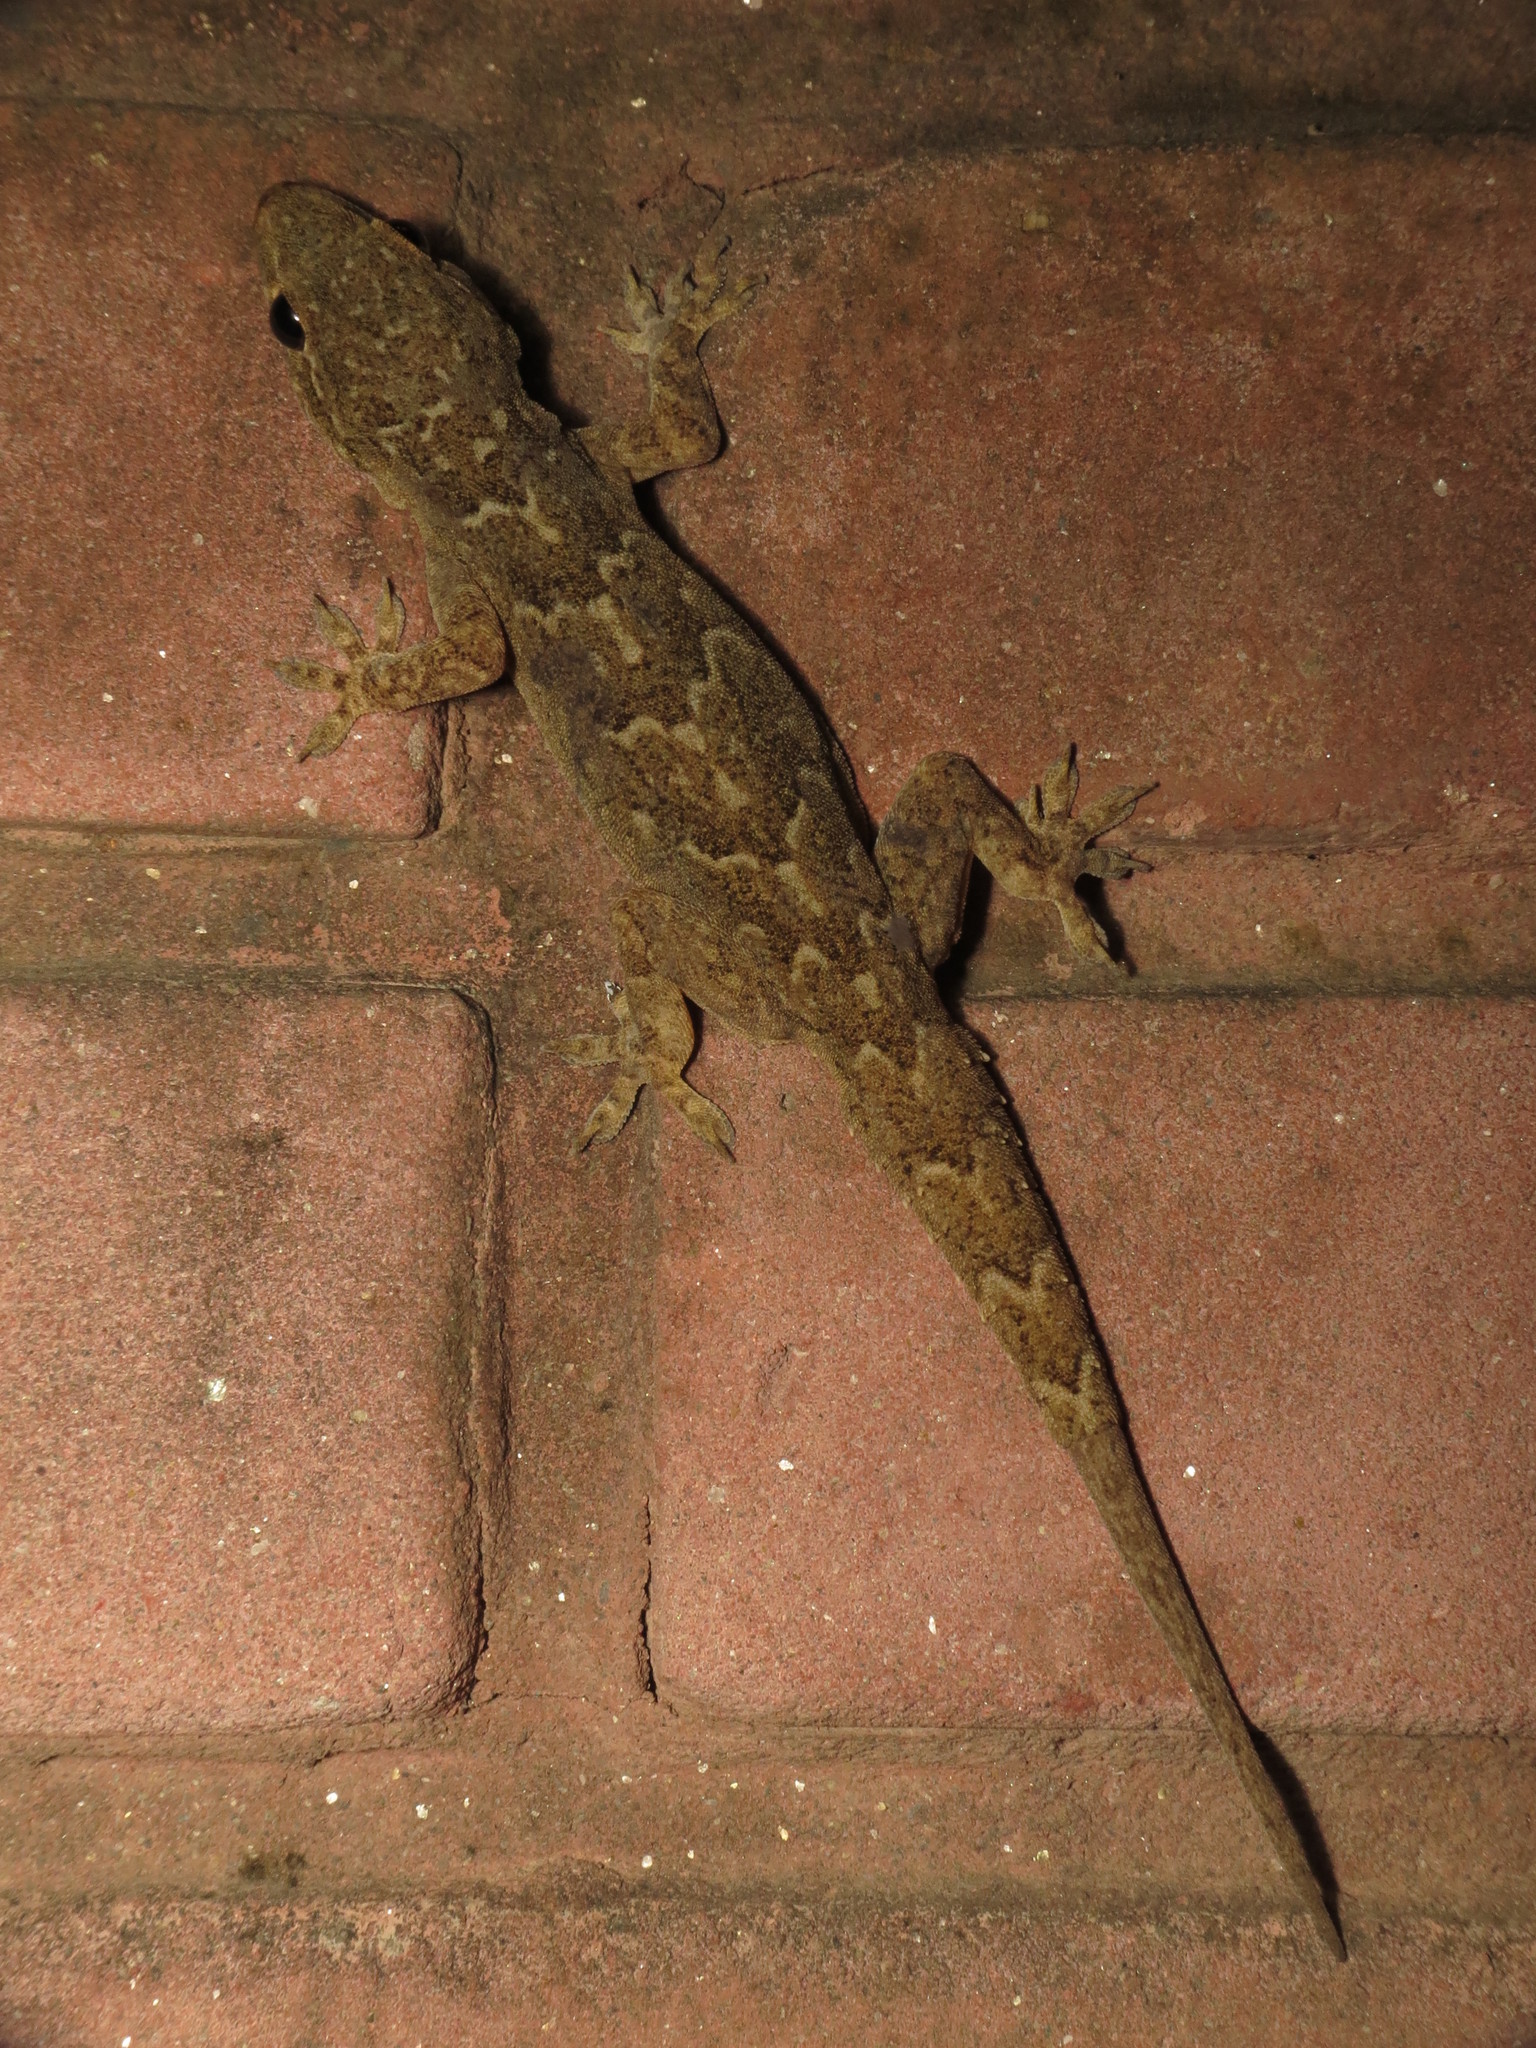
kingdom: Animalia
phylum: Chordata
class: Squamata
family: Gekkonidae
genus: Hemidactylus
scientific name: Hemidactylus flaviviridis
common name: Northern house gecko
